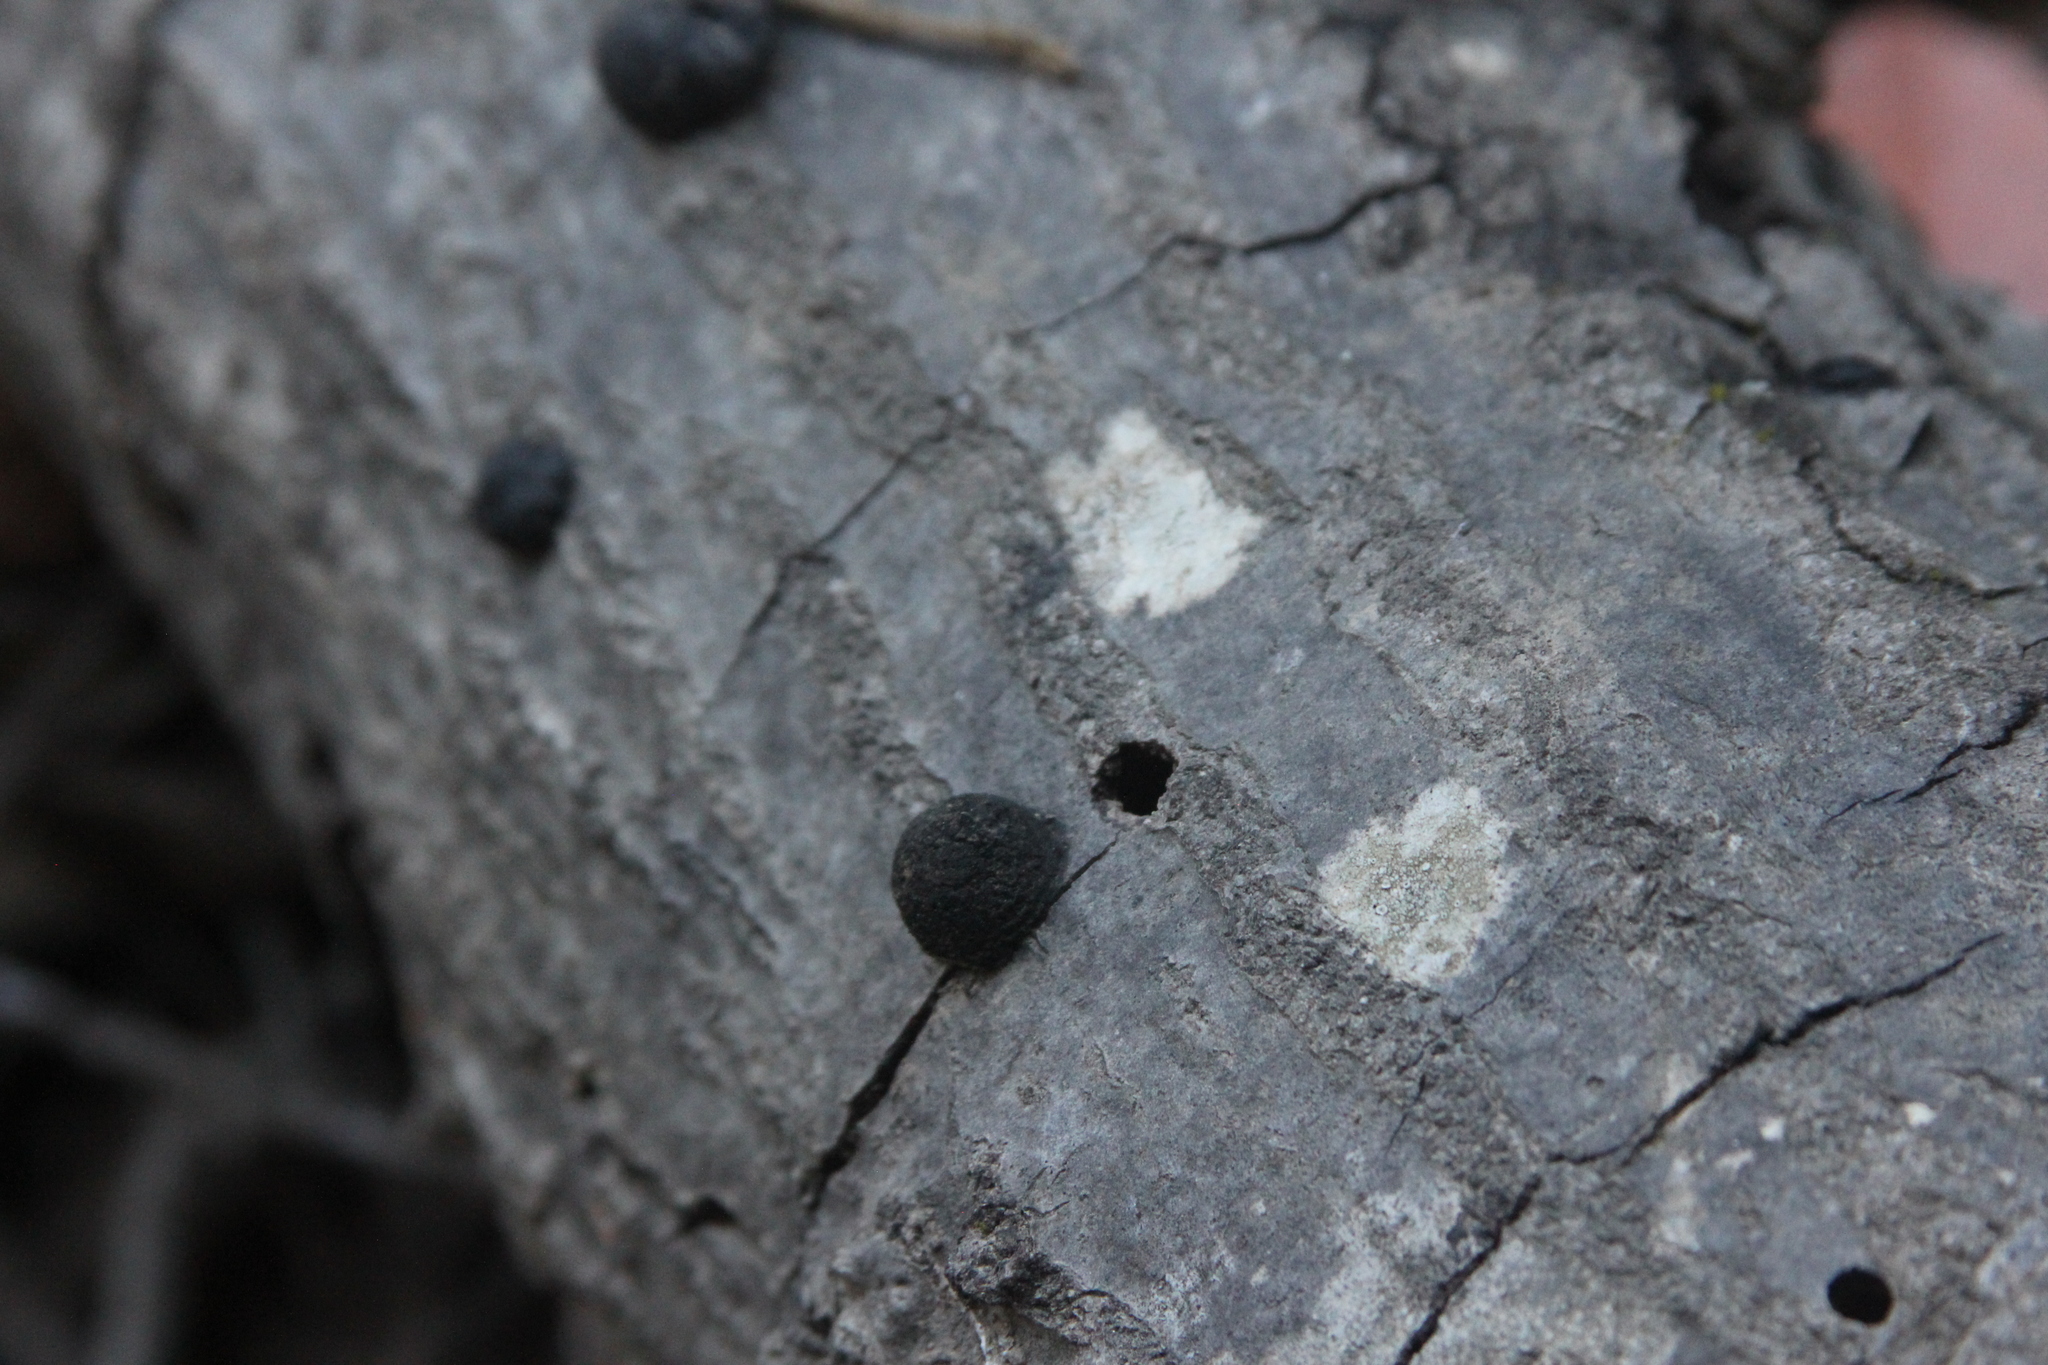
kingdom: Fungi
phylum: Ascomycota
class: Sordariomycetes
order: Xylariales
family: Hypoxylaceae
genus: Annulohypoxylon
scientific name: Annulohypoxylon thouarsianum
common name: Cramp balls
